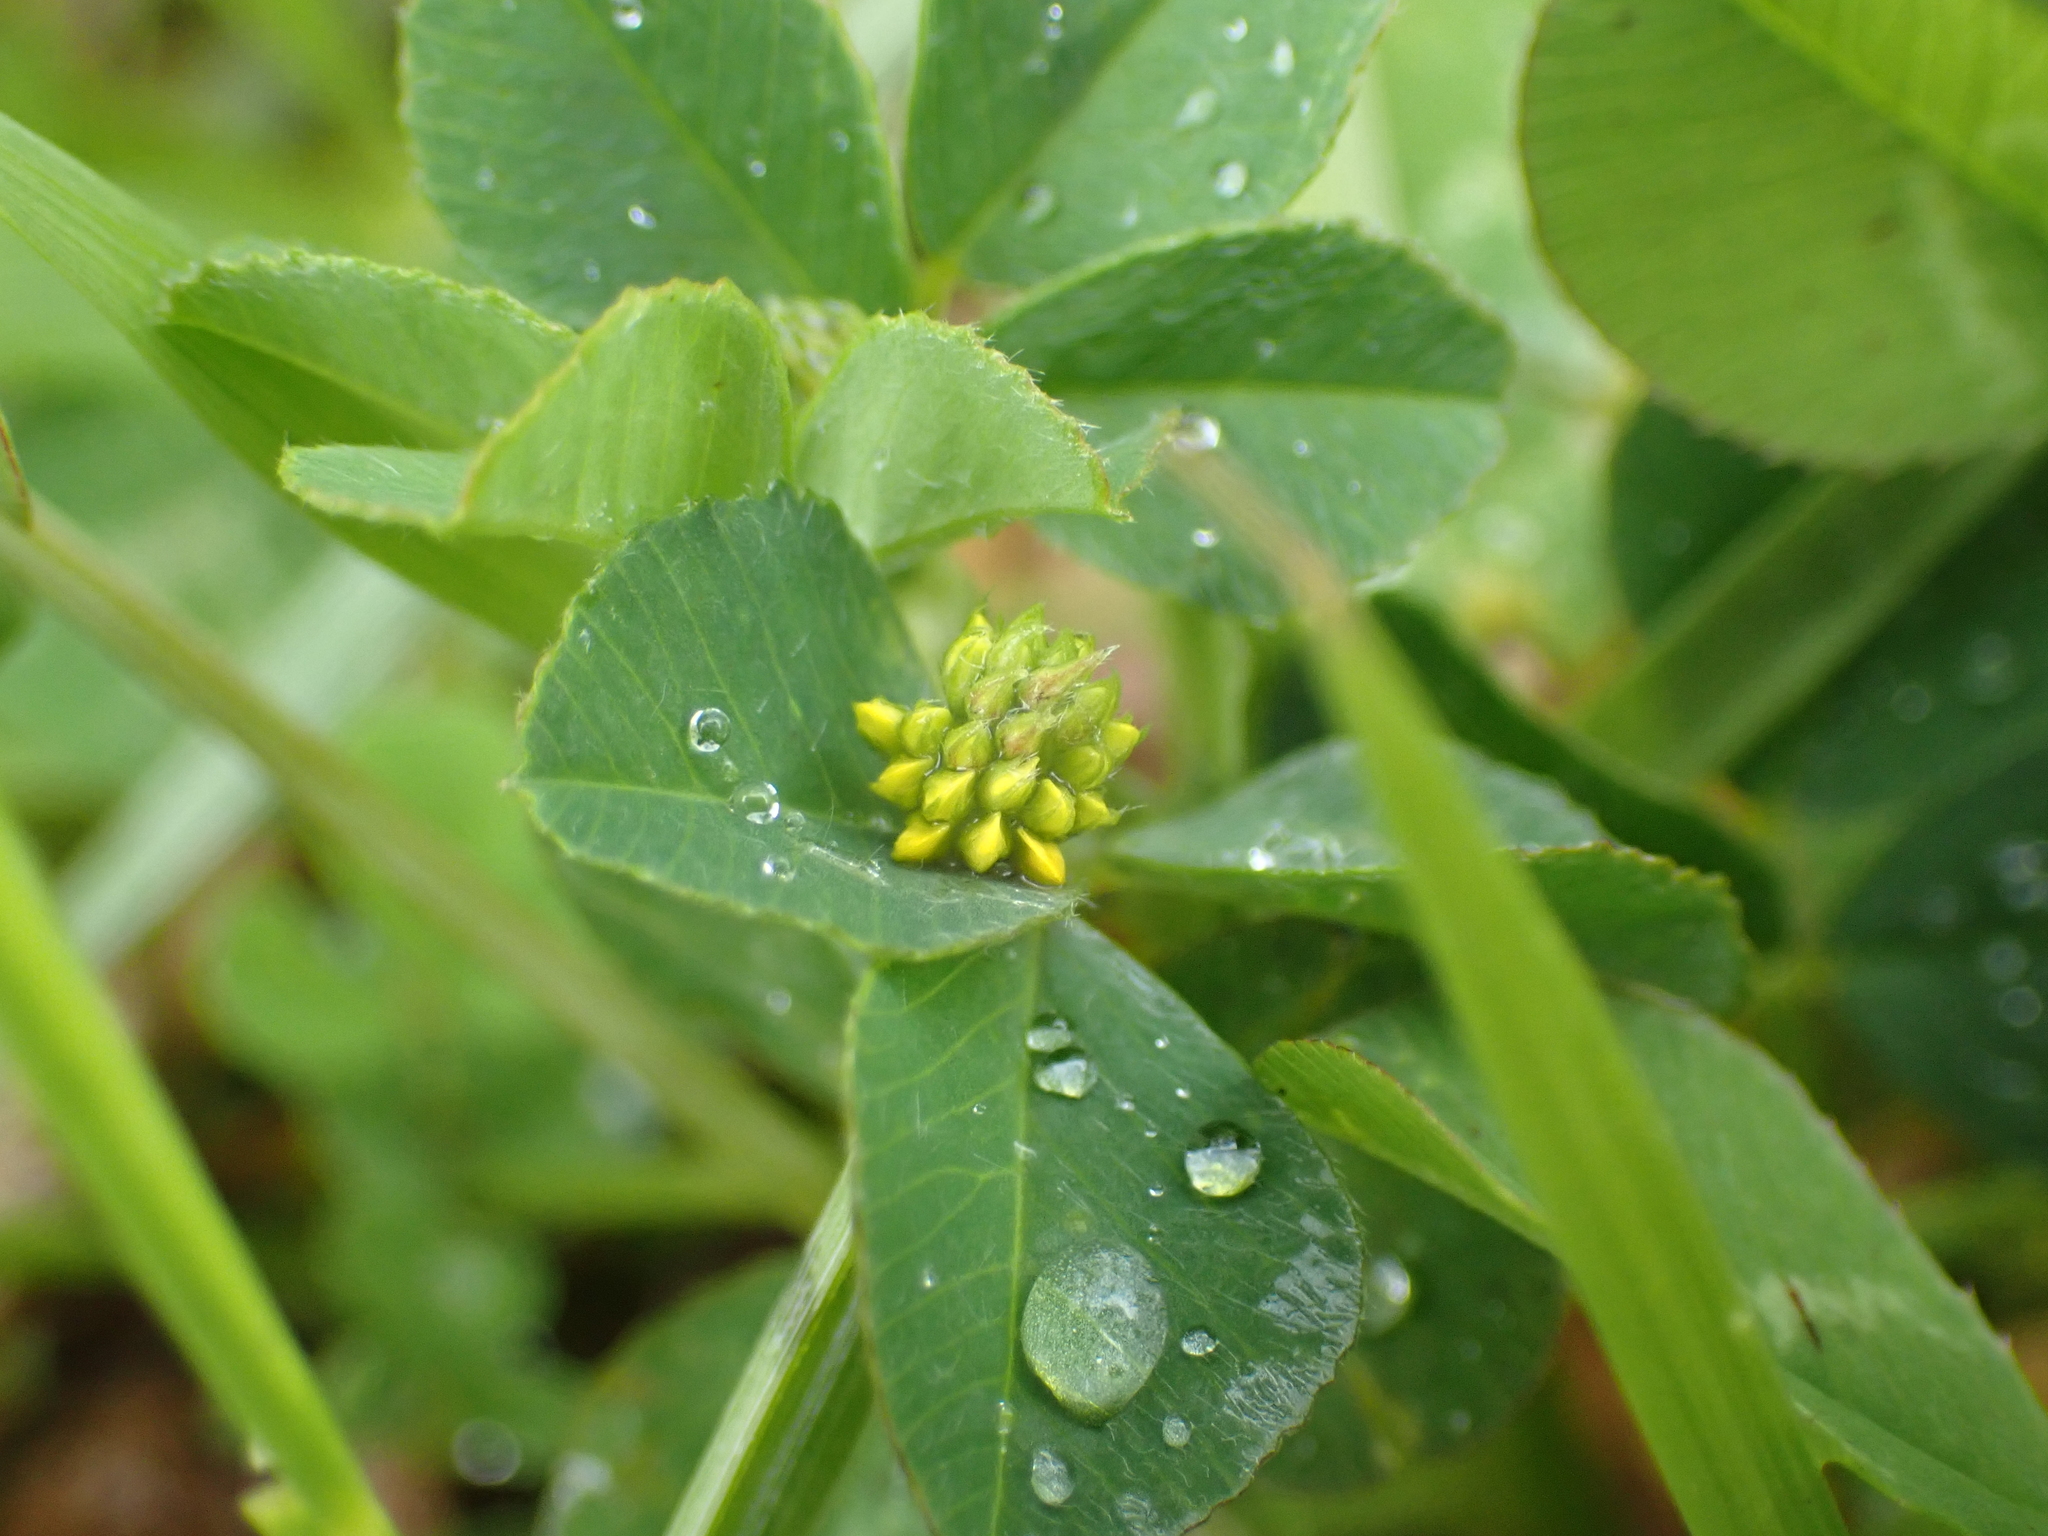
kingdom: Plantae
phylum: Tracheophyta
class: Magnoliopsida
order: Fabales
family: Fabaceae
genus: Medicago
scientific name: Medicago lupulina
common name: Black medick
